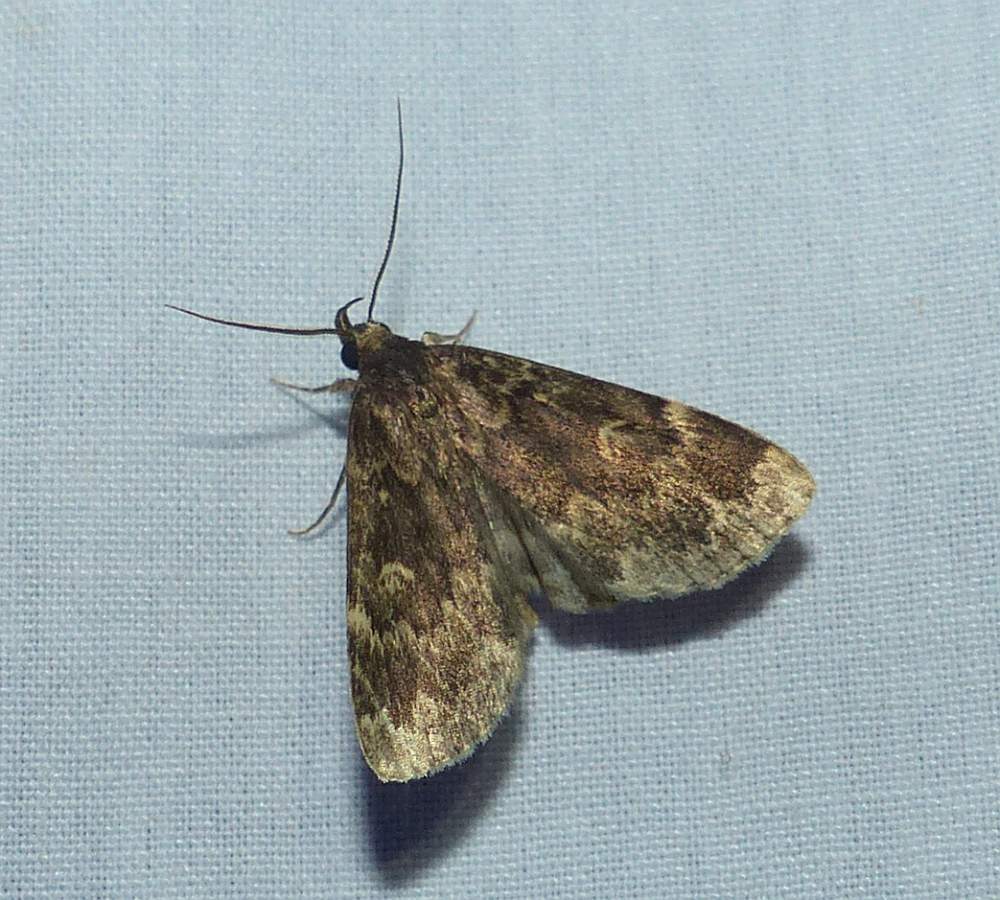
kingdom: Animalia
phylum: Arthropoda
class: Insecta
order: Lepidoptera
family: Erebidae
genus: Idia
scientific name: Idia lubricalis
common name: Twin-striped tabby
